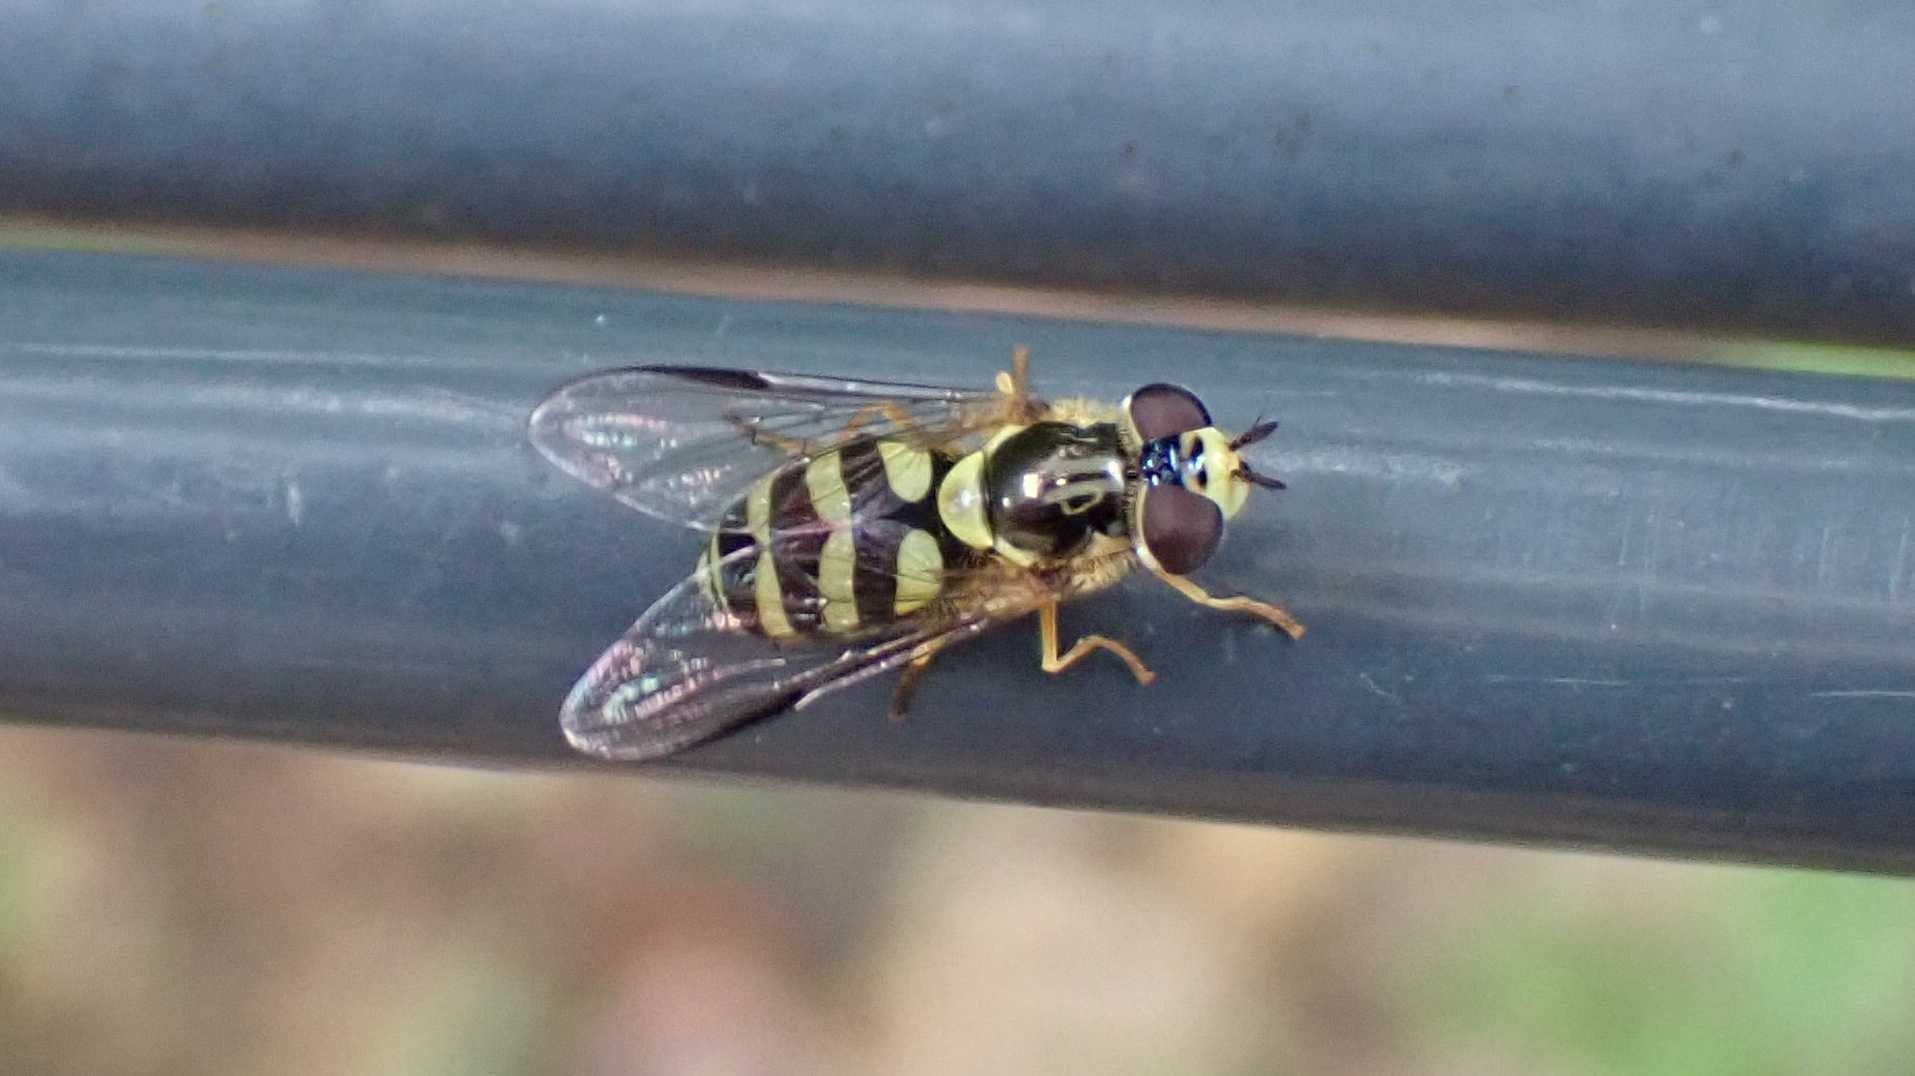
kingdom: Animalia
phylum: Arthropoda
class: Insecta
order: Diptera
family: Syrphidae
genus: Dasysyrphus
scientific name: Dasysyrphus albostriatus
